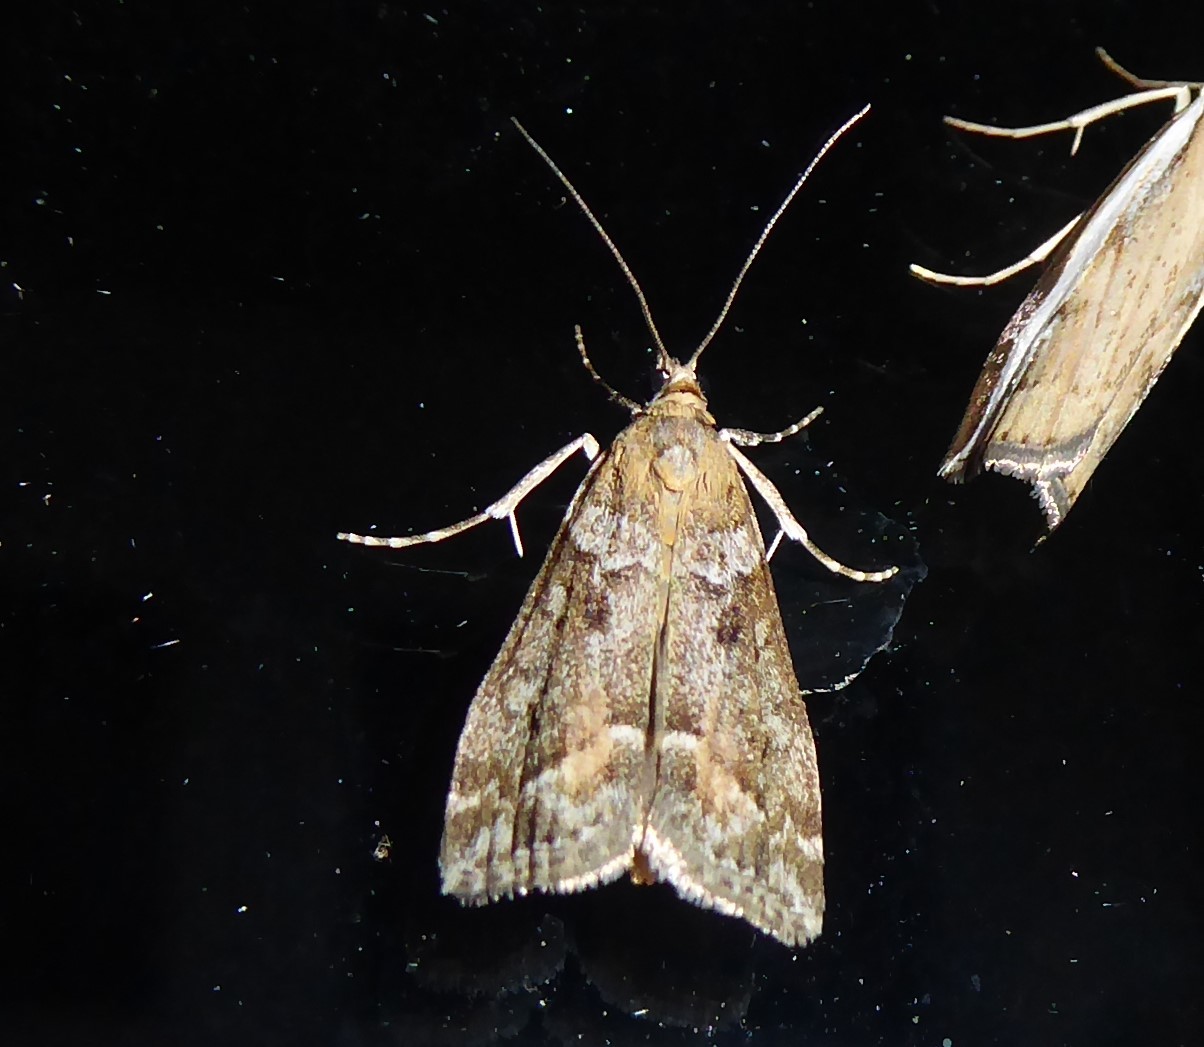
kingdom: Animalia
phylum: Arthropoda
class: Insecta
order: Lepidoptera
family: Crambidae
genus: Eudonia
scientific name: Eudonia submarginalis
